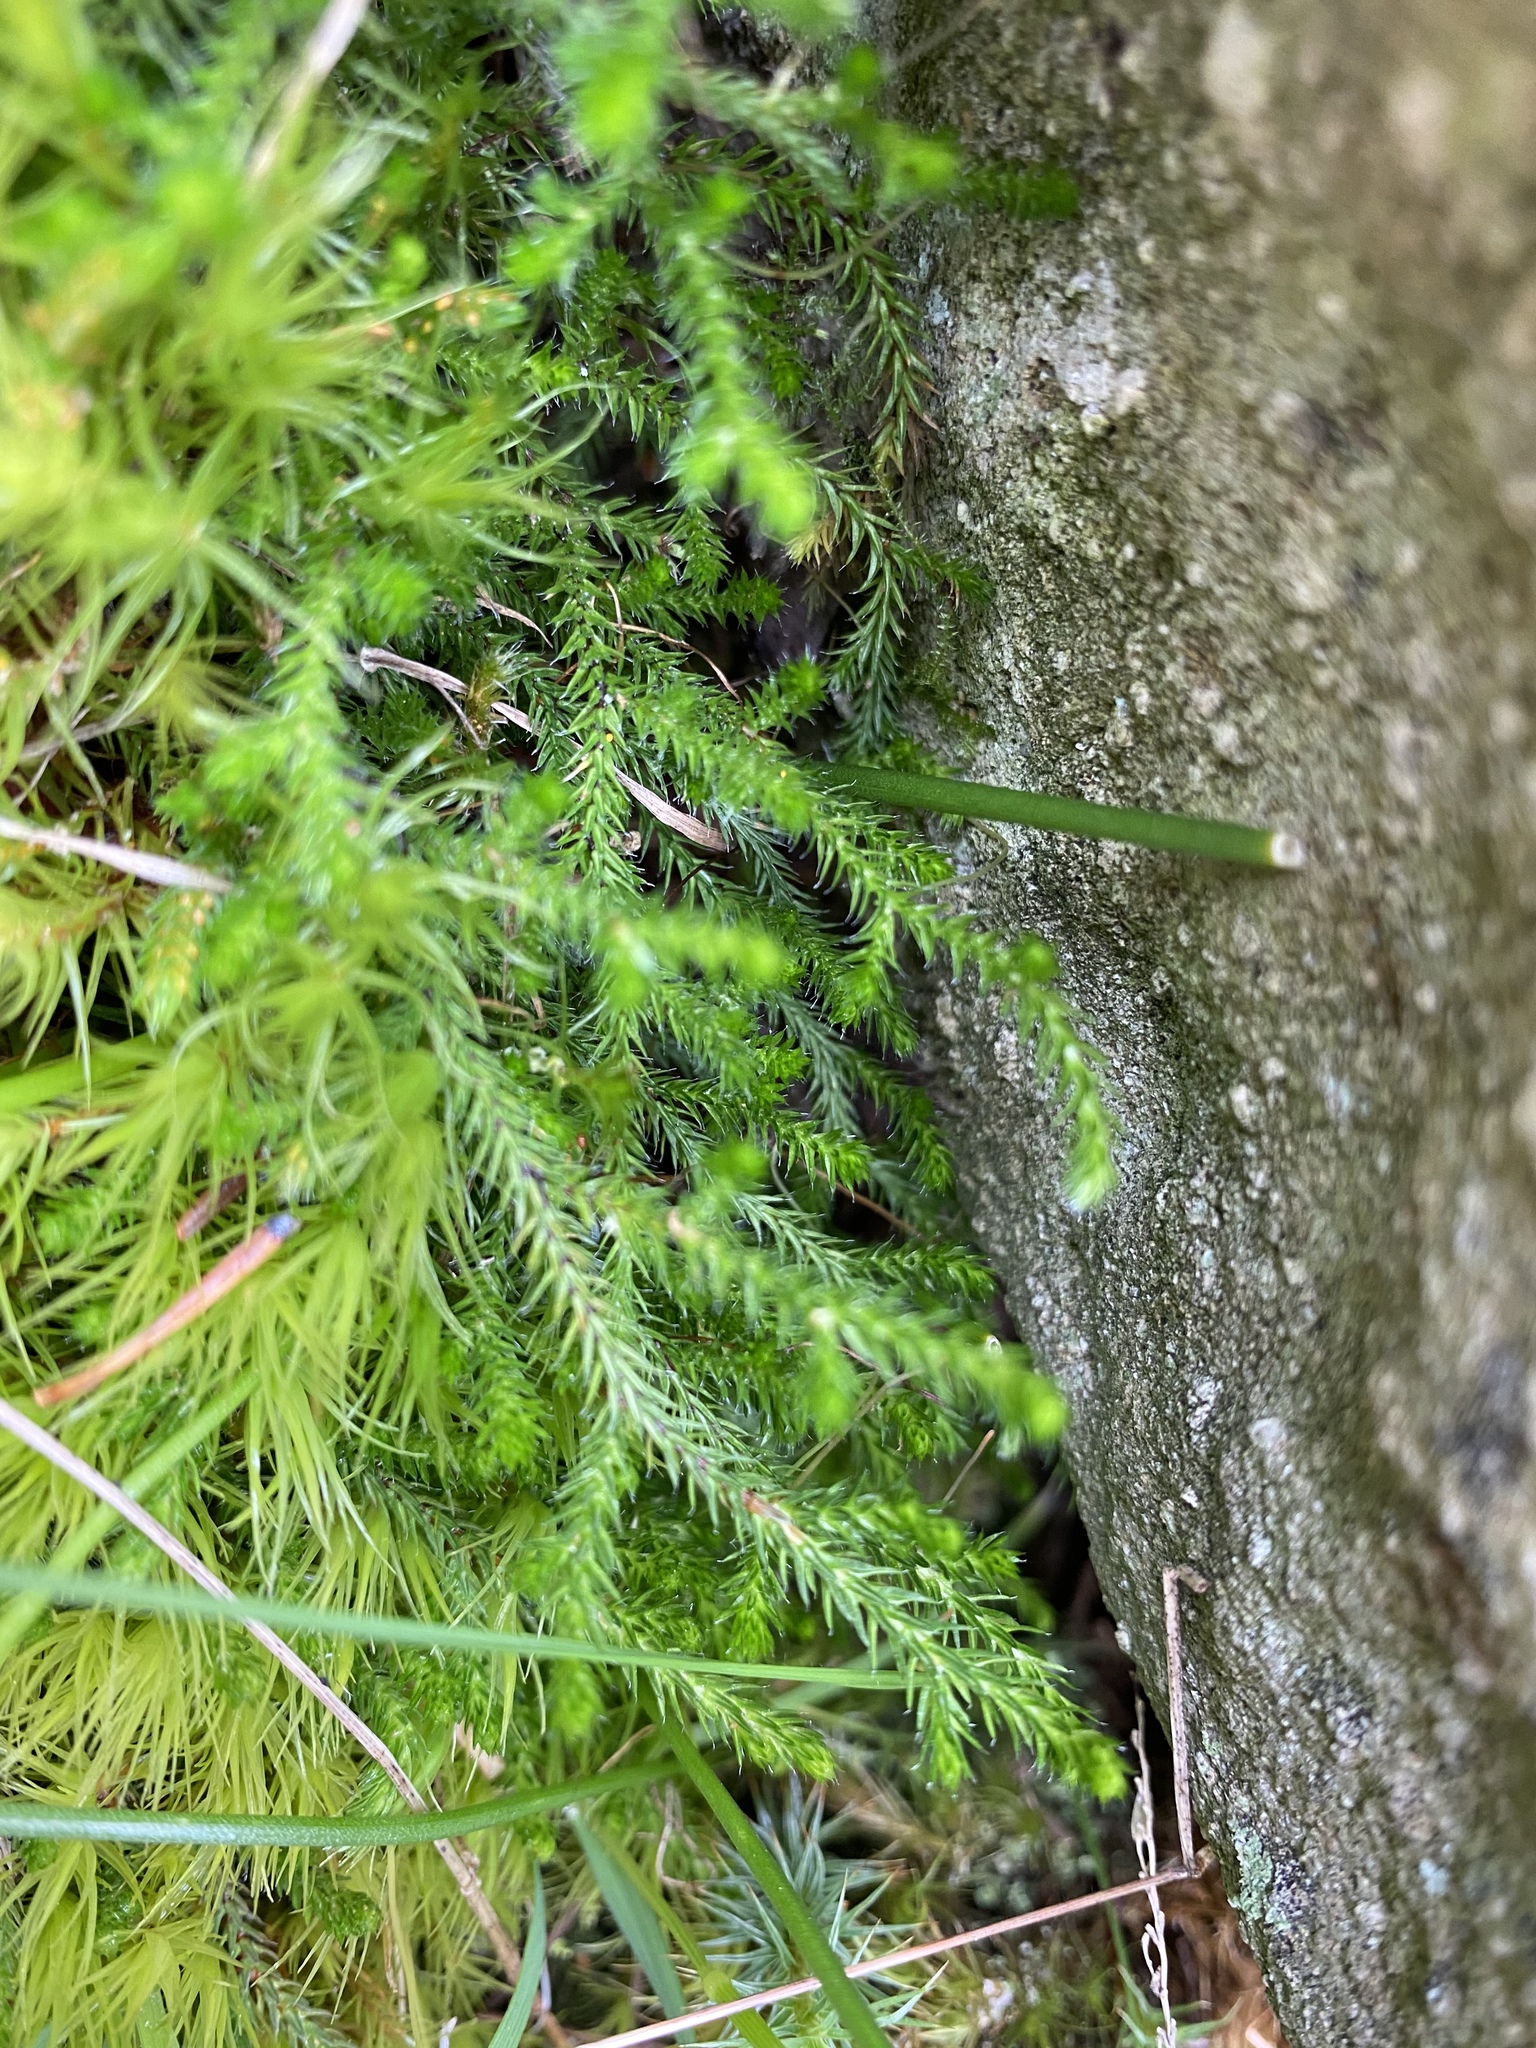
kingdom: Plantae
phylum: Tracheophyta
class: Lycopodiopsida
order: Selaginellales
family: Selaginellaceae
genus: Selaginella
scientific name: Selaginella wallacei
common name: Wallace's selaginella
